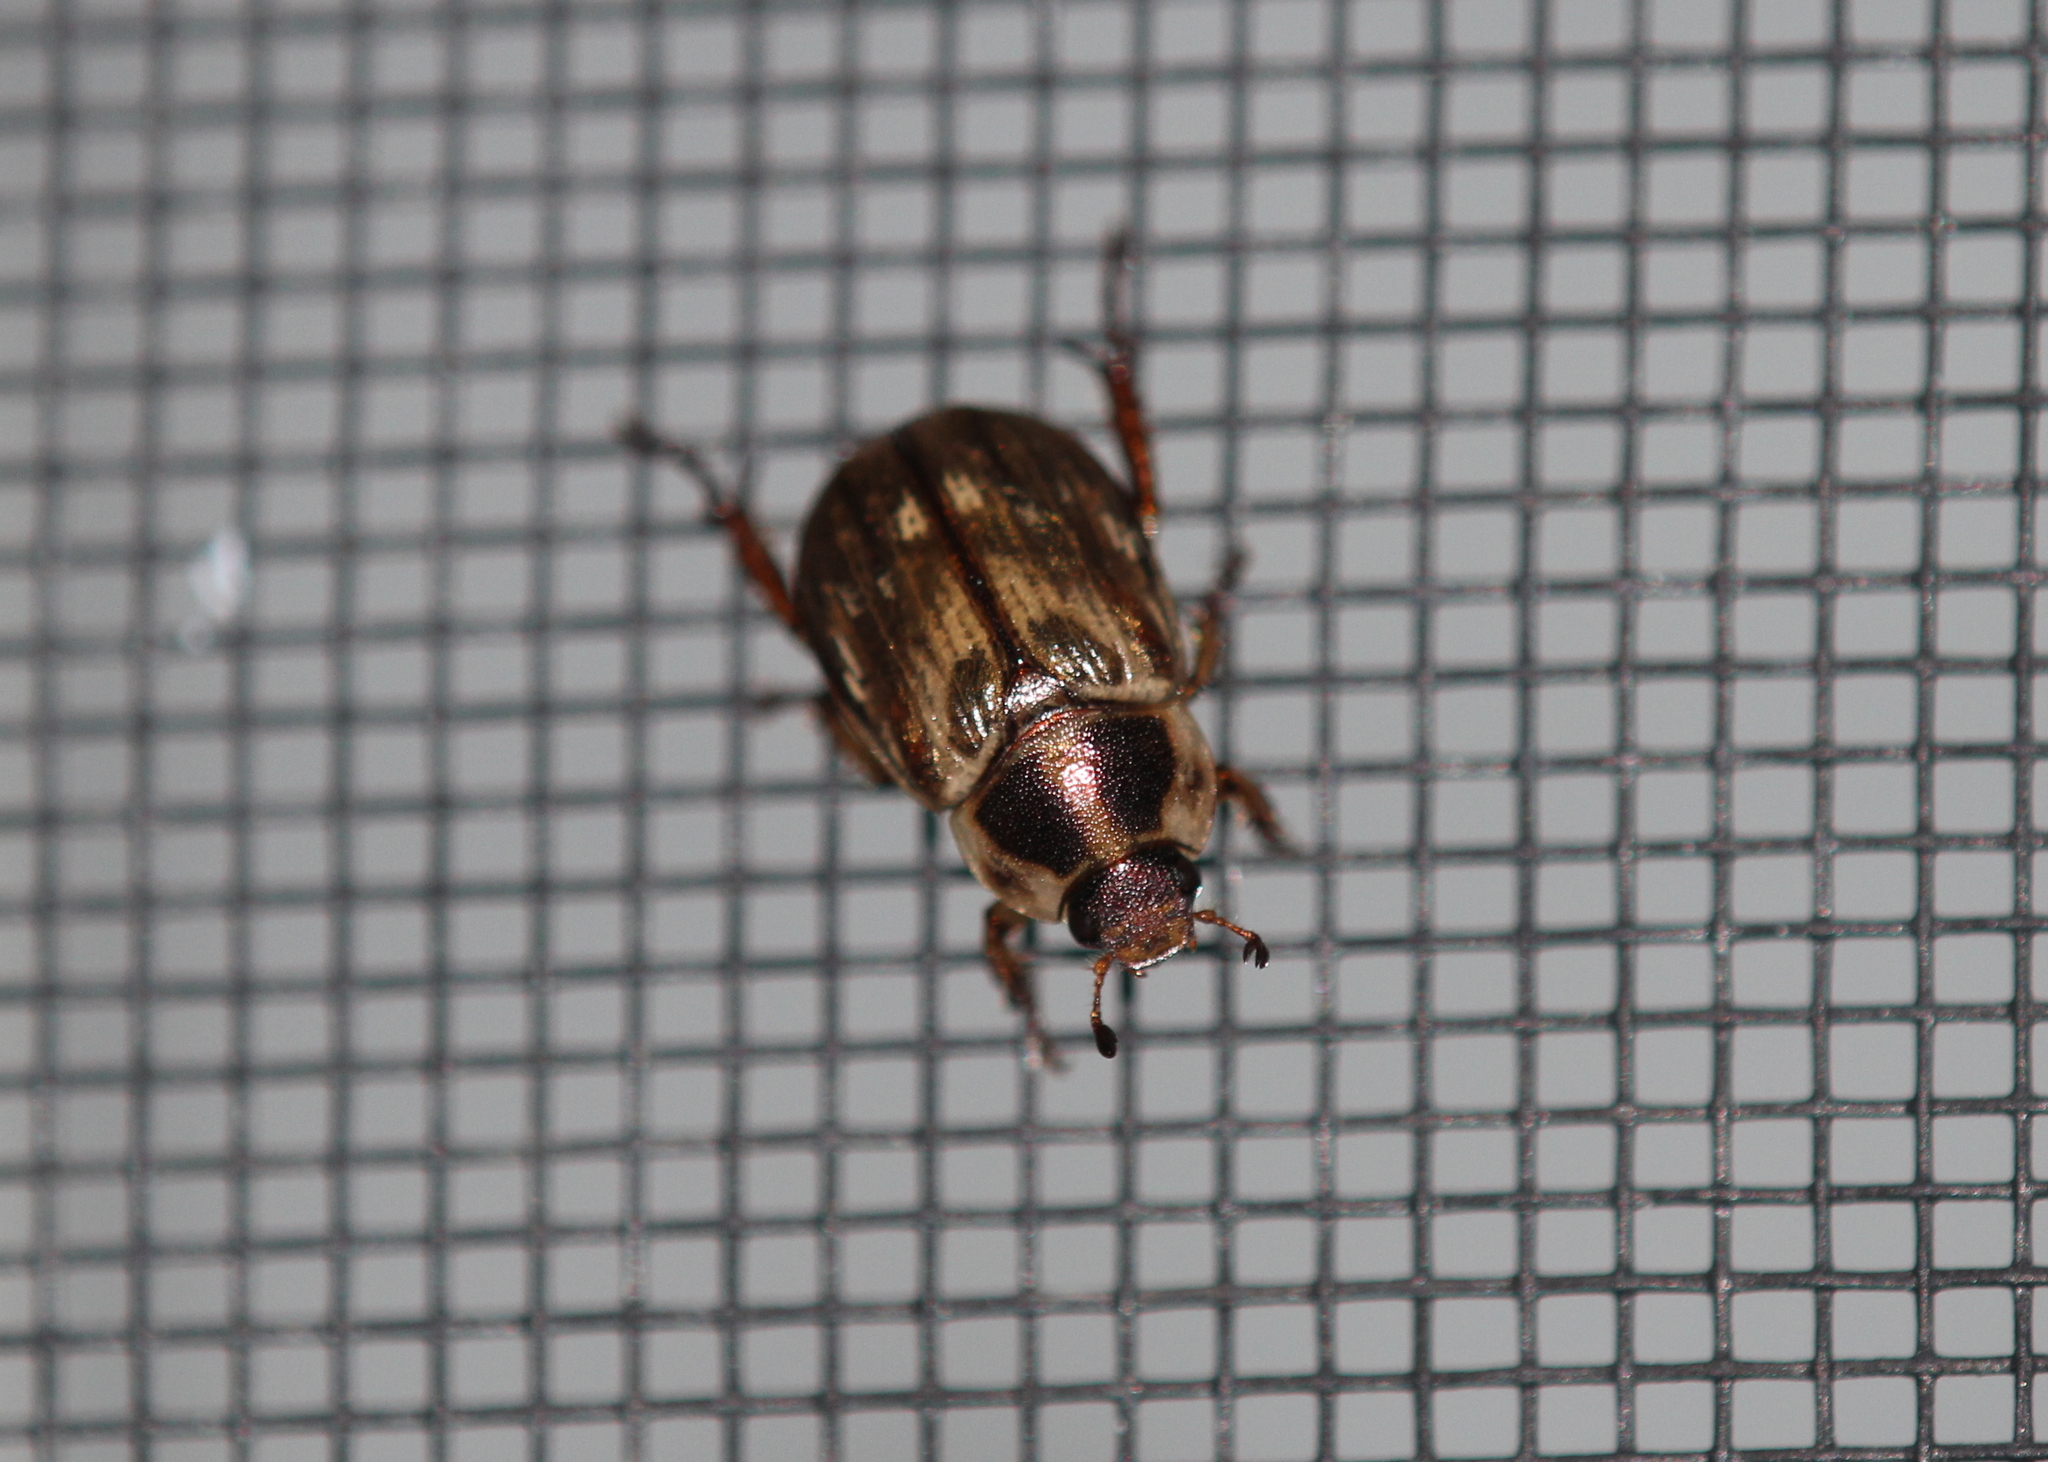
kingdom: Animalia
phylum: Arthropoda
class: Insecta
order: Coleoptera
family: Scarabaeidae
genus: Exomala
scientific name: Exomala orientalis
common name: Oriental beetle
